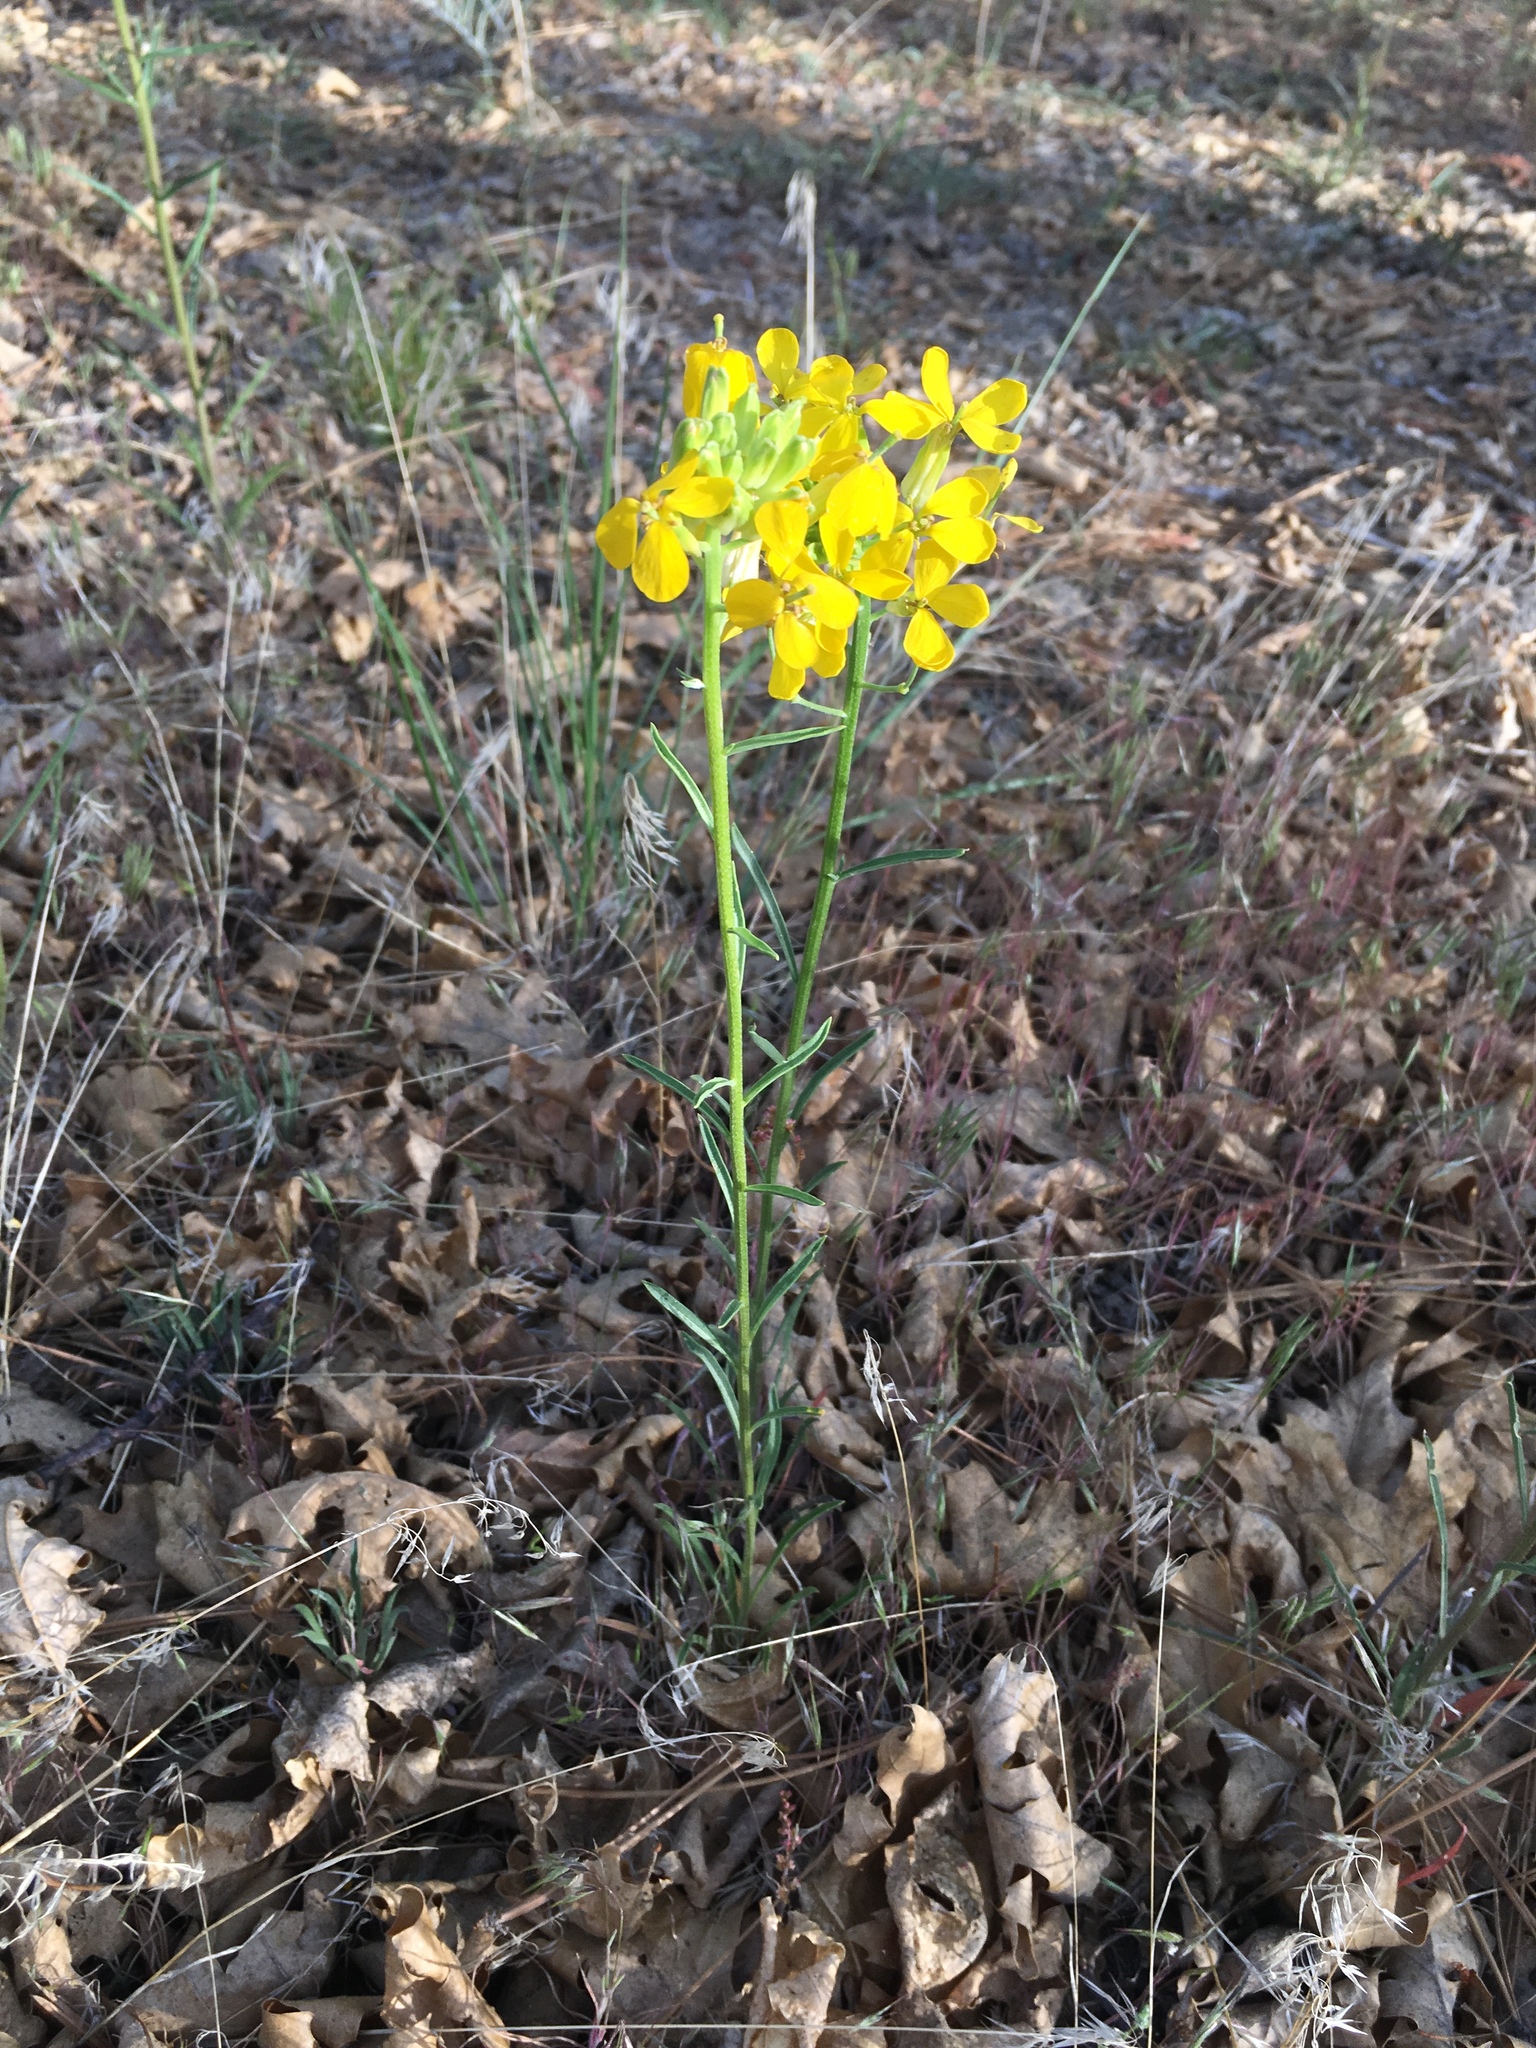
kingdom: Plantae
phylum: Tracheophyta
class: Magnoliopsida
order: Brassicales
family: Brassicaceae
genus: Erysimum
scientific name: Erysimum capitatum
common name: Western wallflower
